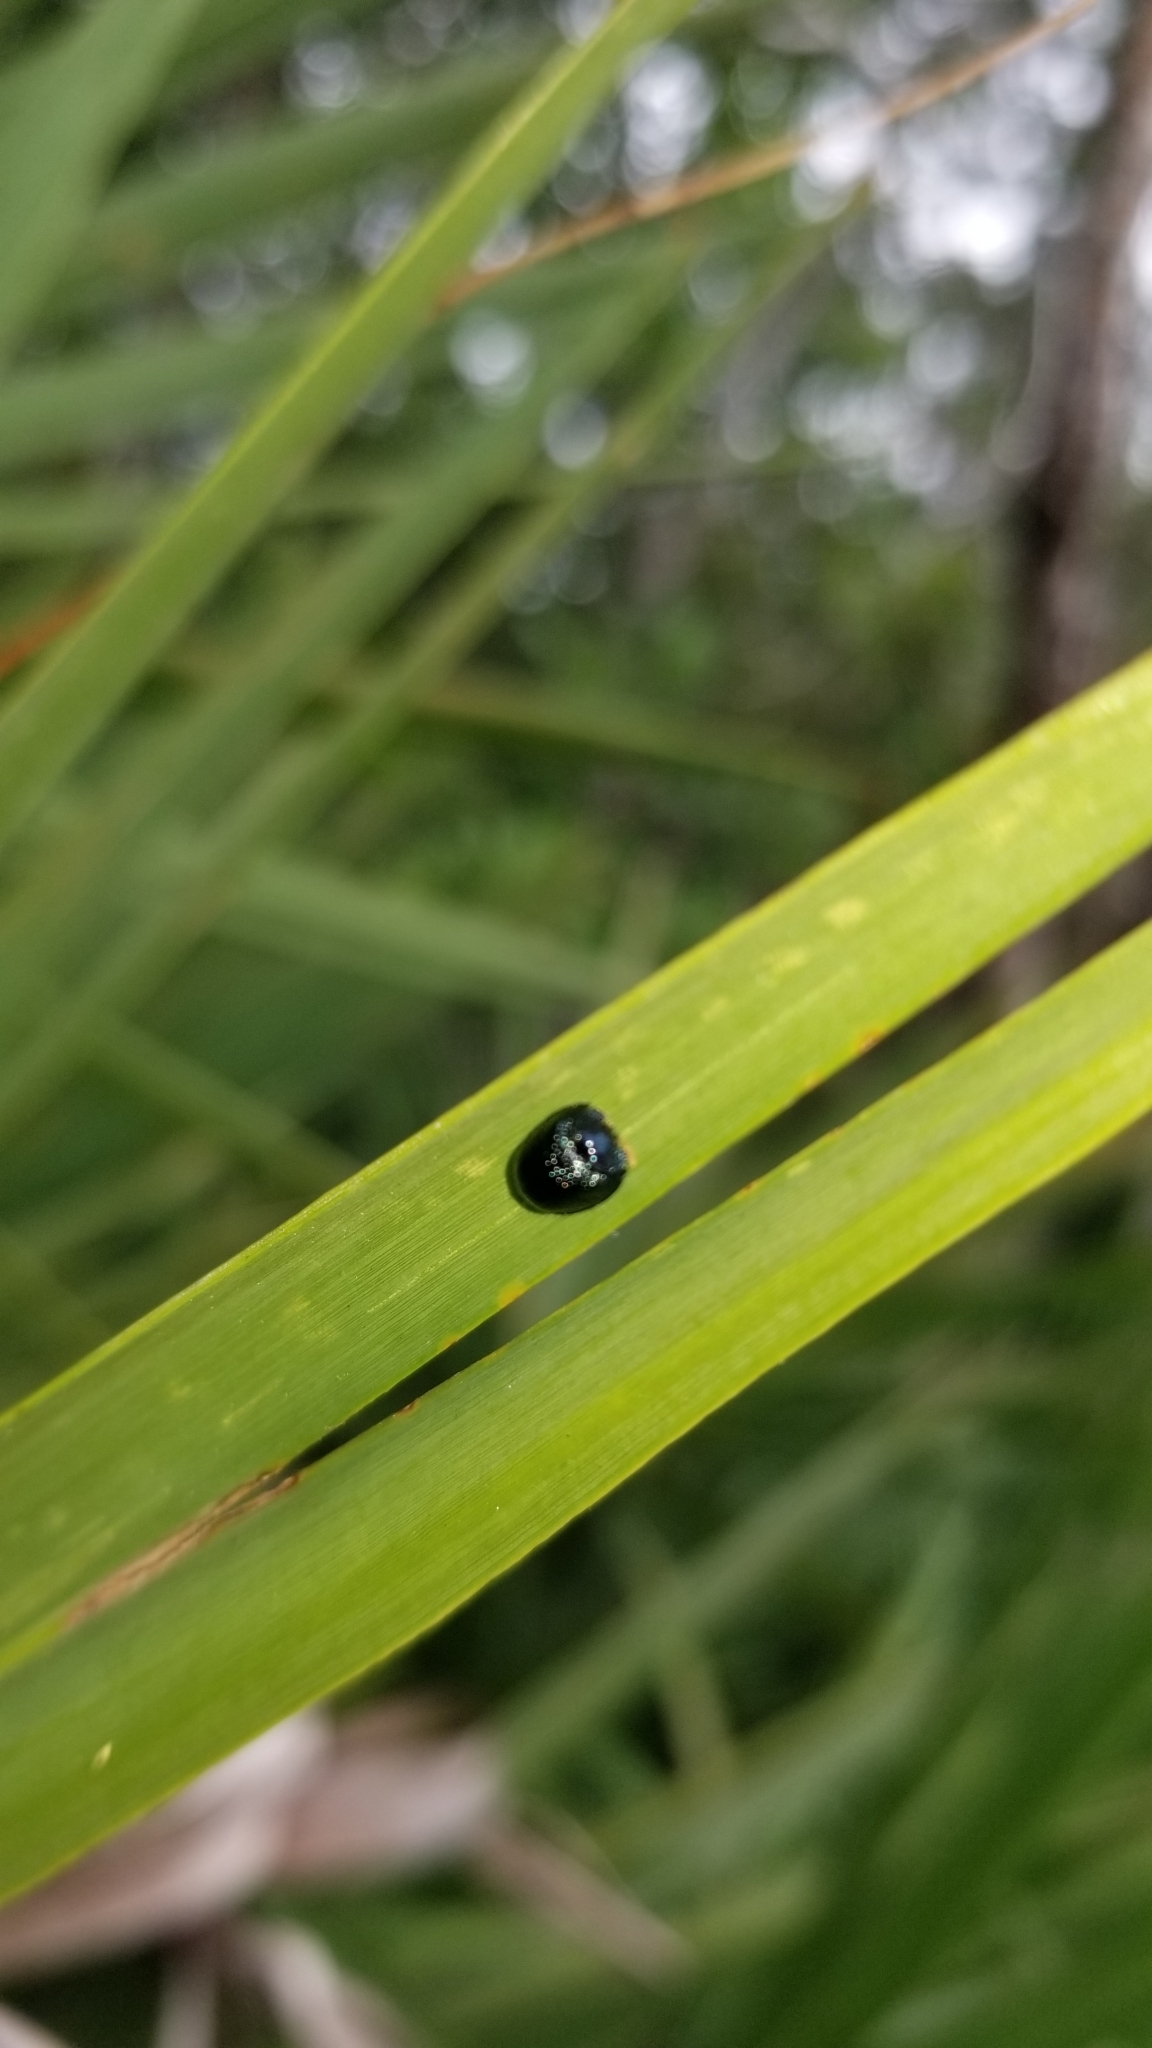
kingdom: Animalia
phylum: Arthropoda
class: Insecta
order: Coleoptera
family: Chrysomelidae
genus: Hemisphaerota
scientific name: Hemisphaerota cyanea
